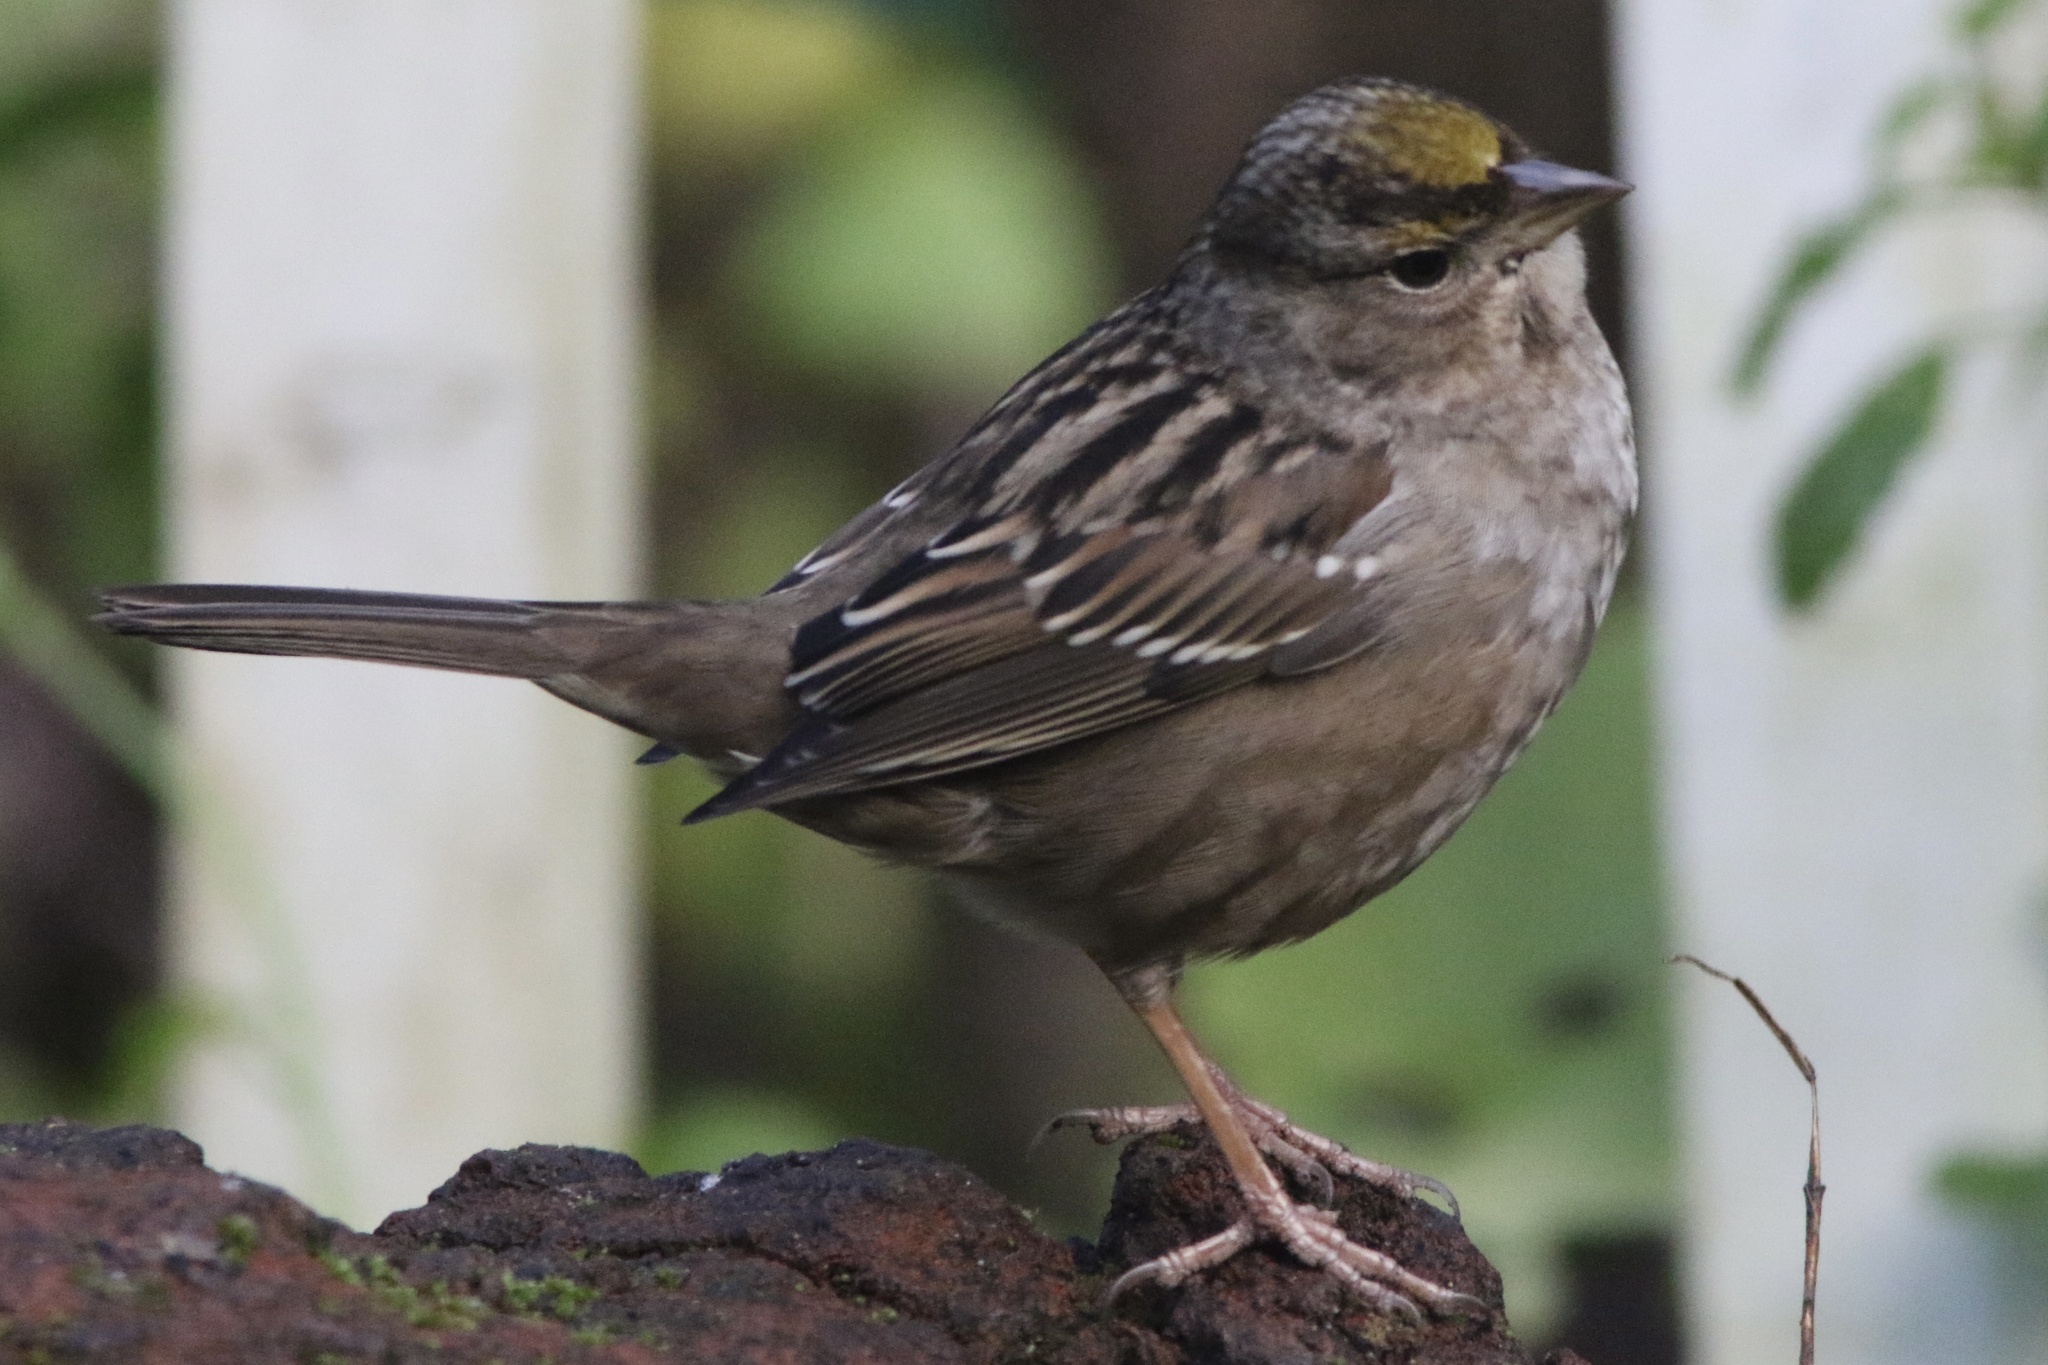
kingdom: Animalia
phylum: Chordata
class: Aves
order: Passeriformes
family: Passerellidae
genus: Zonotrichia
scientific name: Zonotrichia atricapilla
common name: Golden-crowned sparrow
